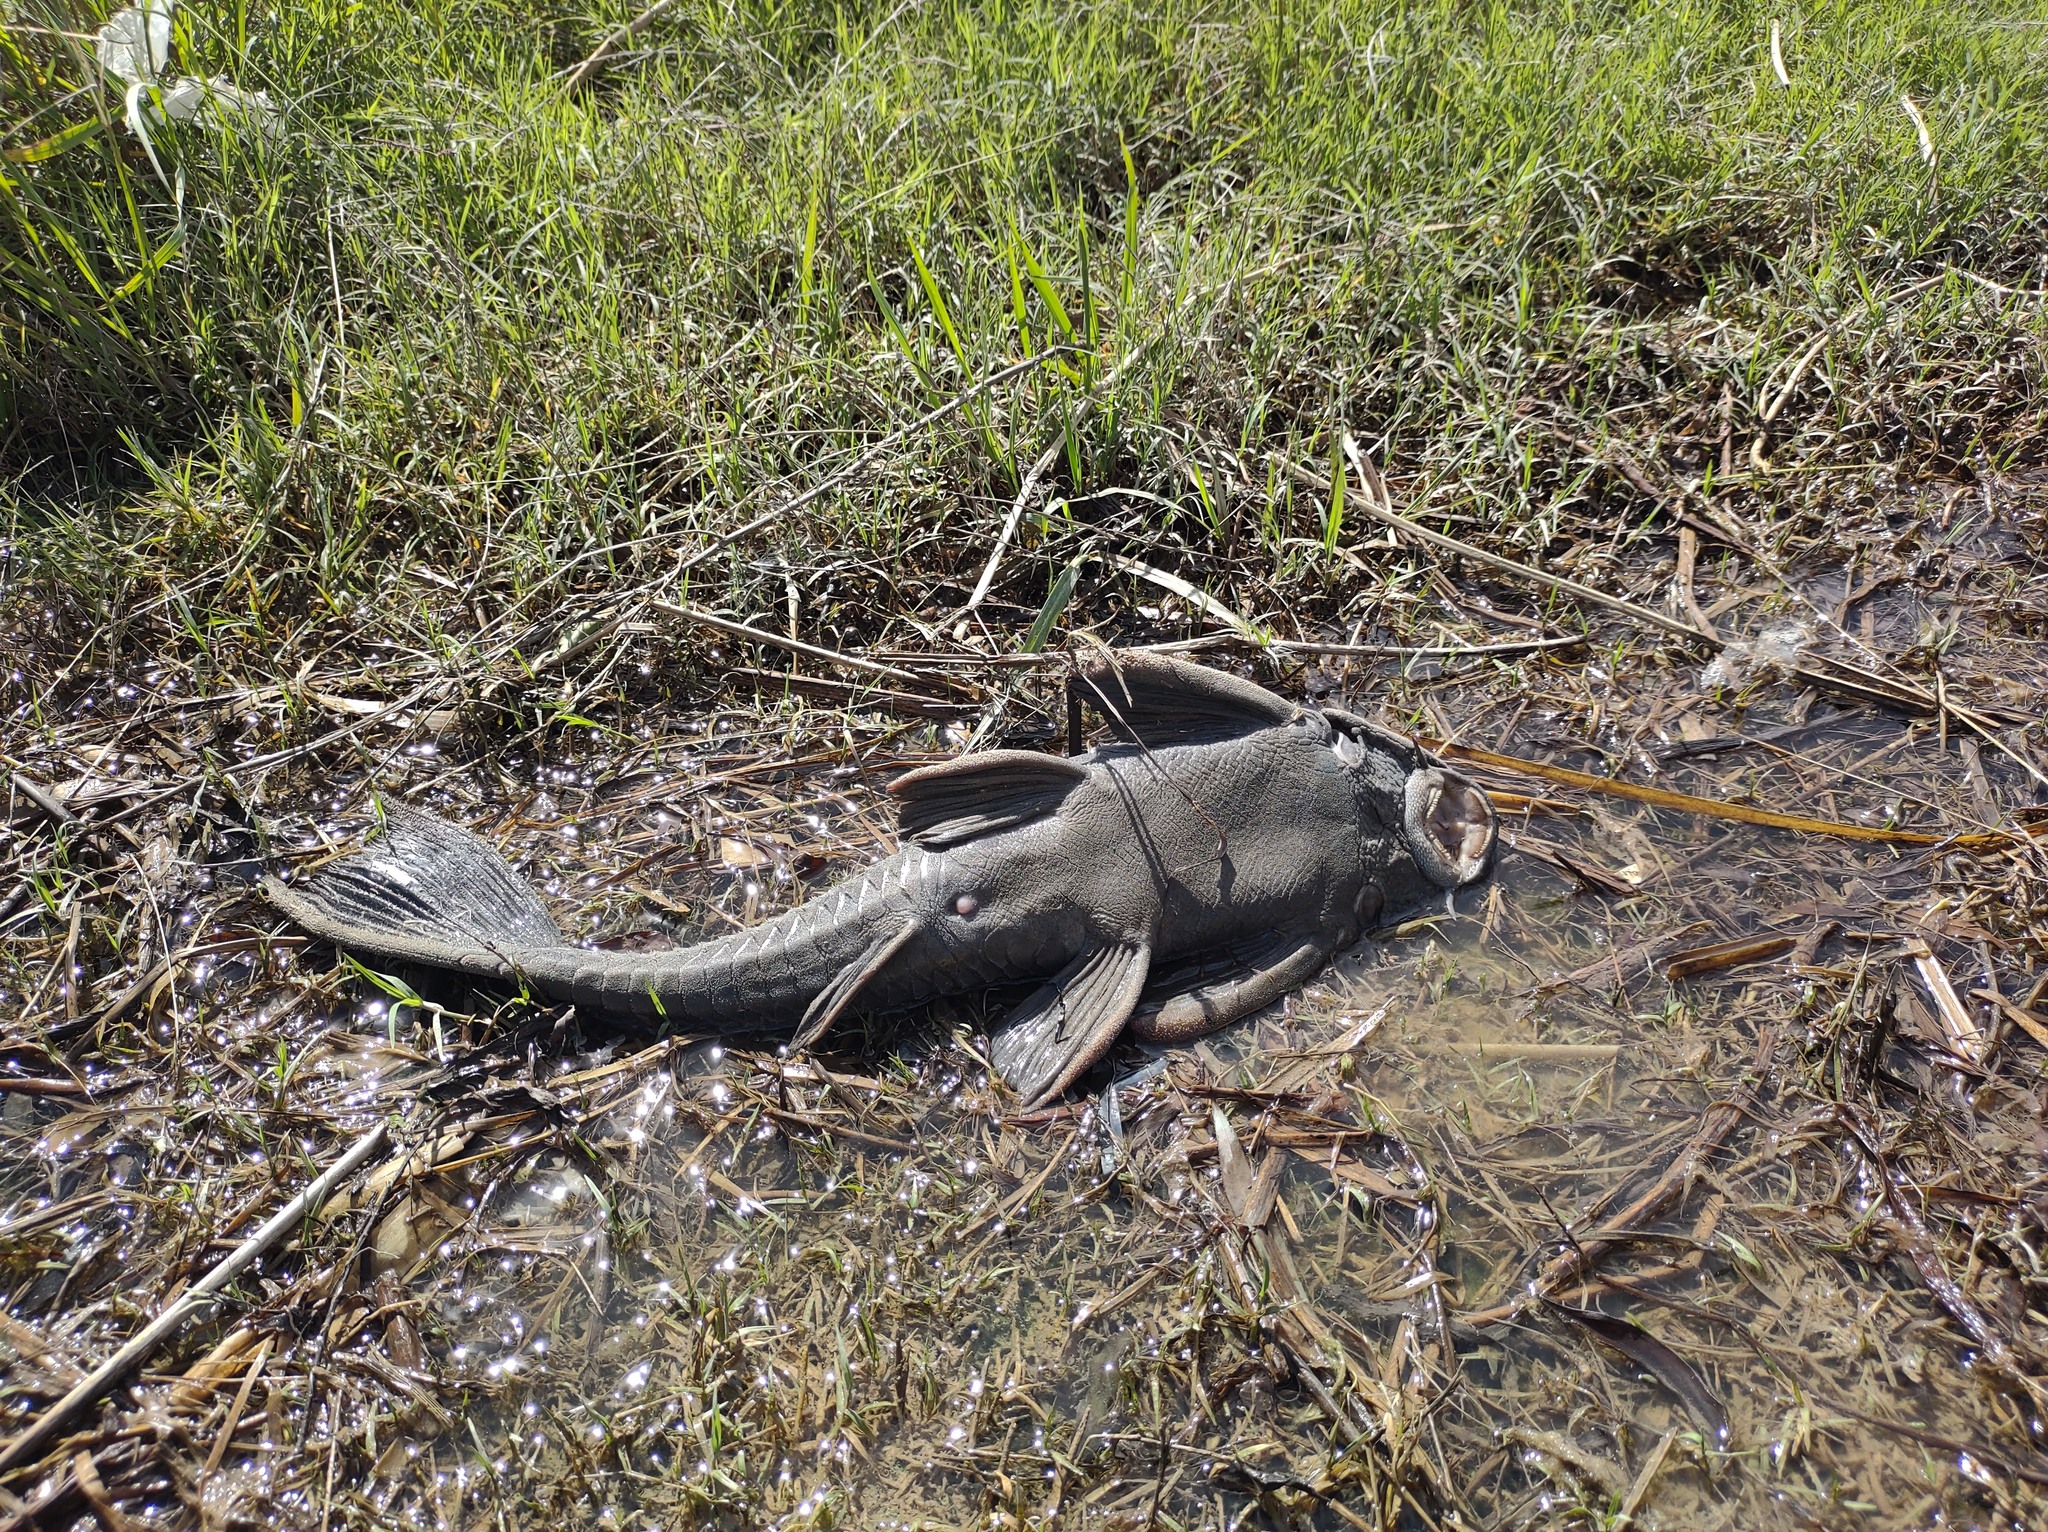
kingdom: Animalia
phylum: Chordata
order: Siluriformes
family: Loricariidae
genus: Hypostomus
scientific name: Hypostomus commersoni
